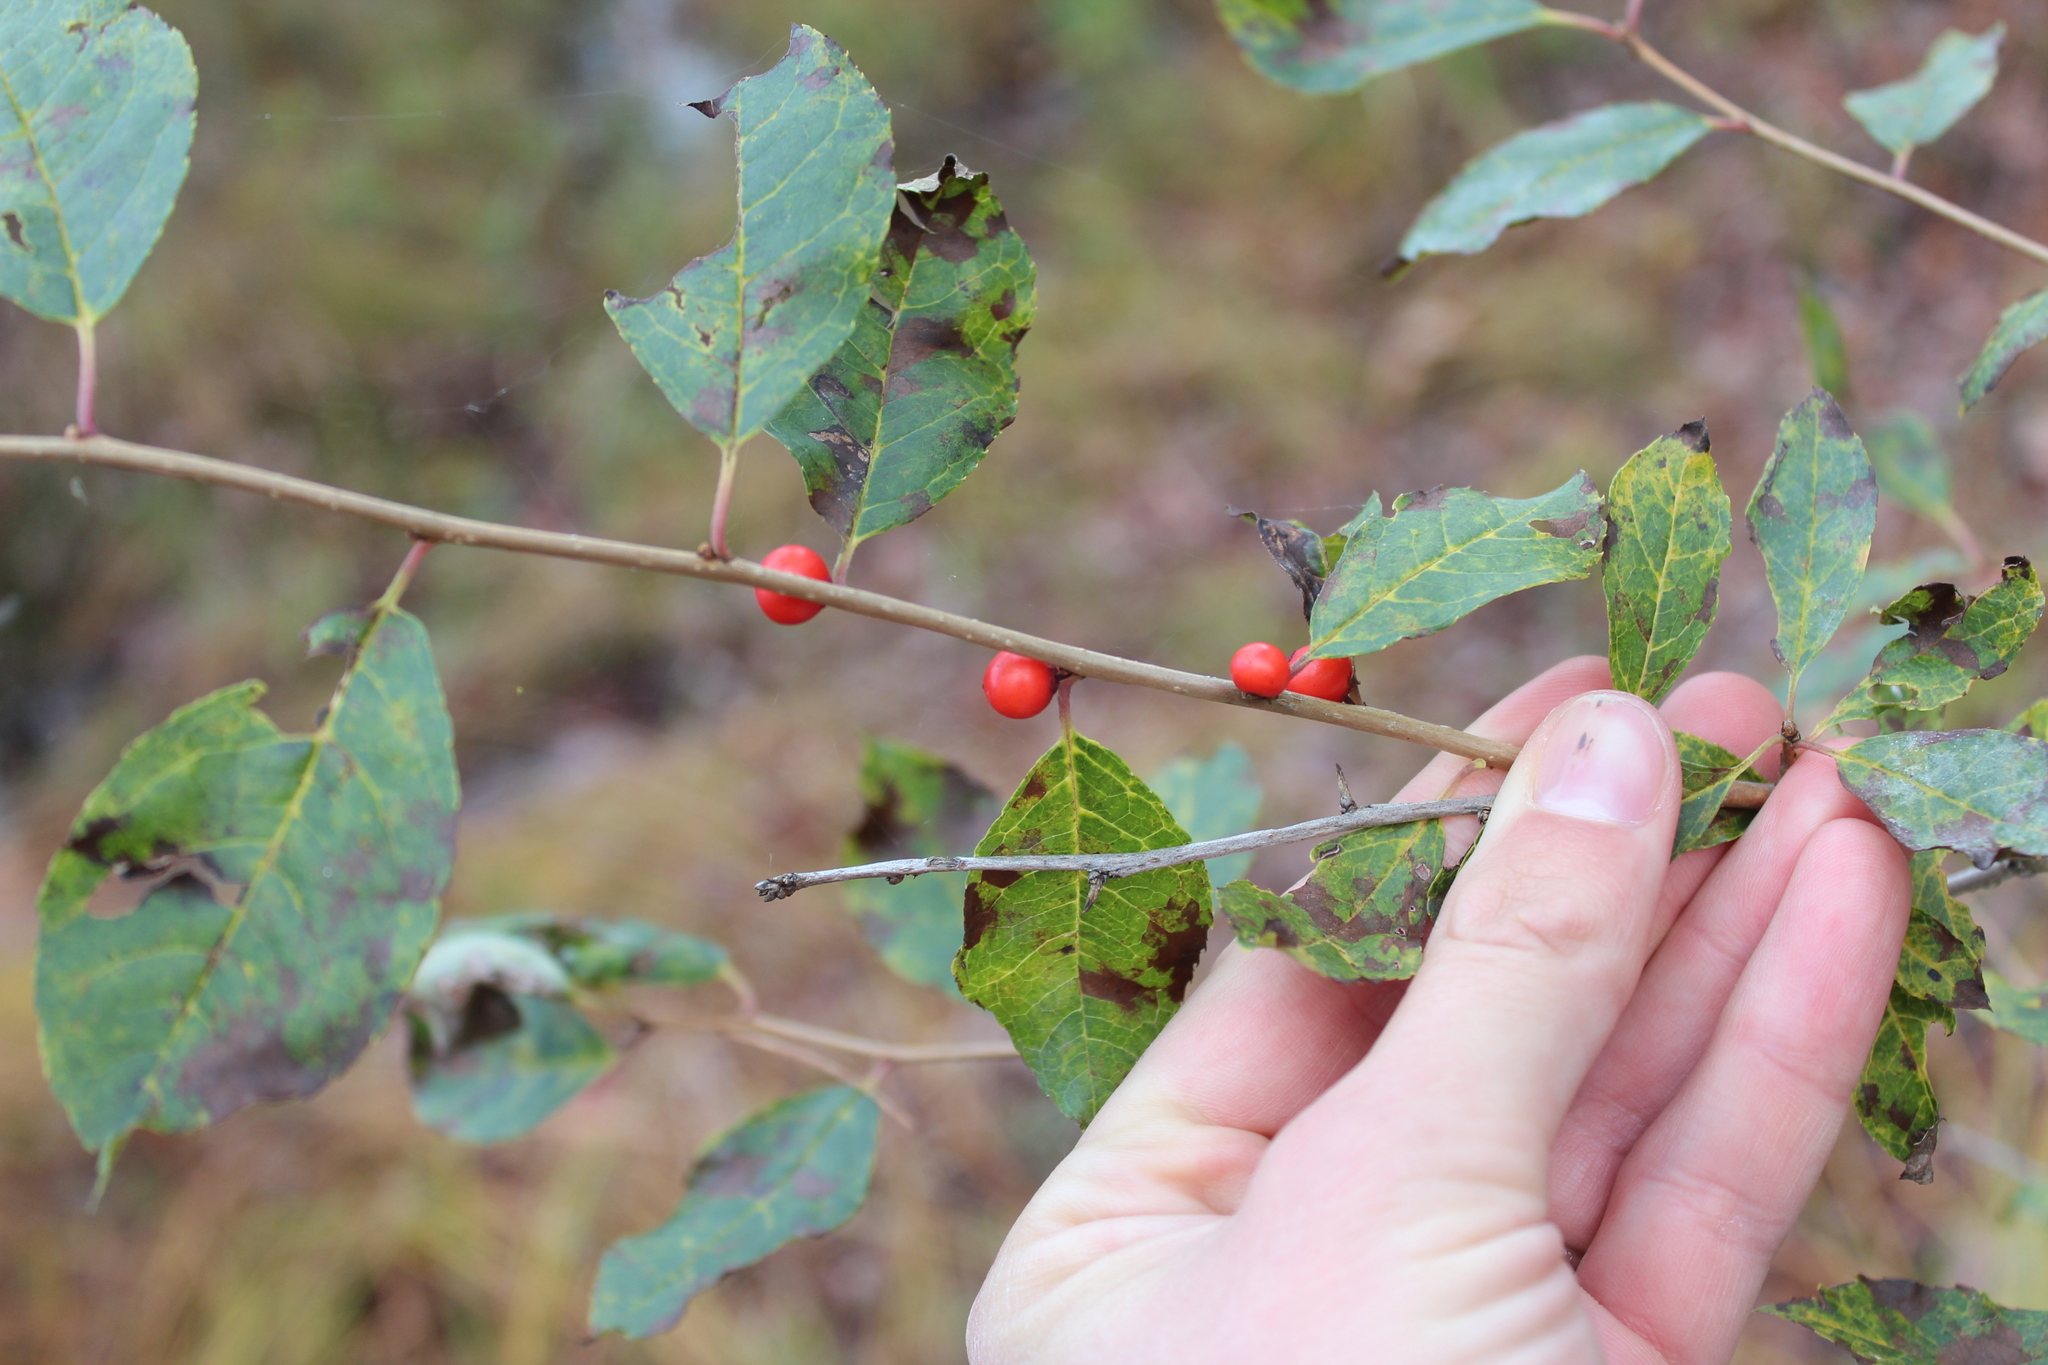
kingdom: Plantae
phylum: Tracheophyta
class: Magnoliopsida
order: Aquifoliales
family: Aquifoliaceae
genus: Ilex
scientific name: Ilex verticillata
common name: Virginia winterberry
